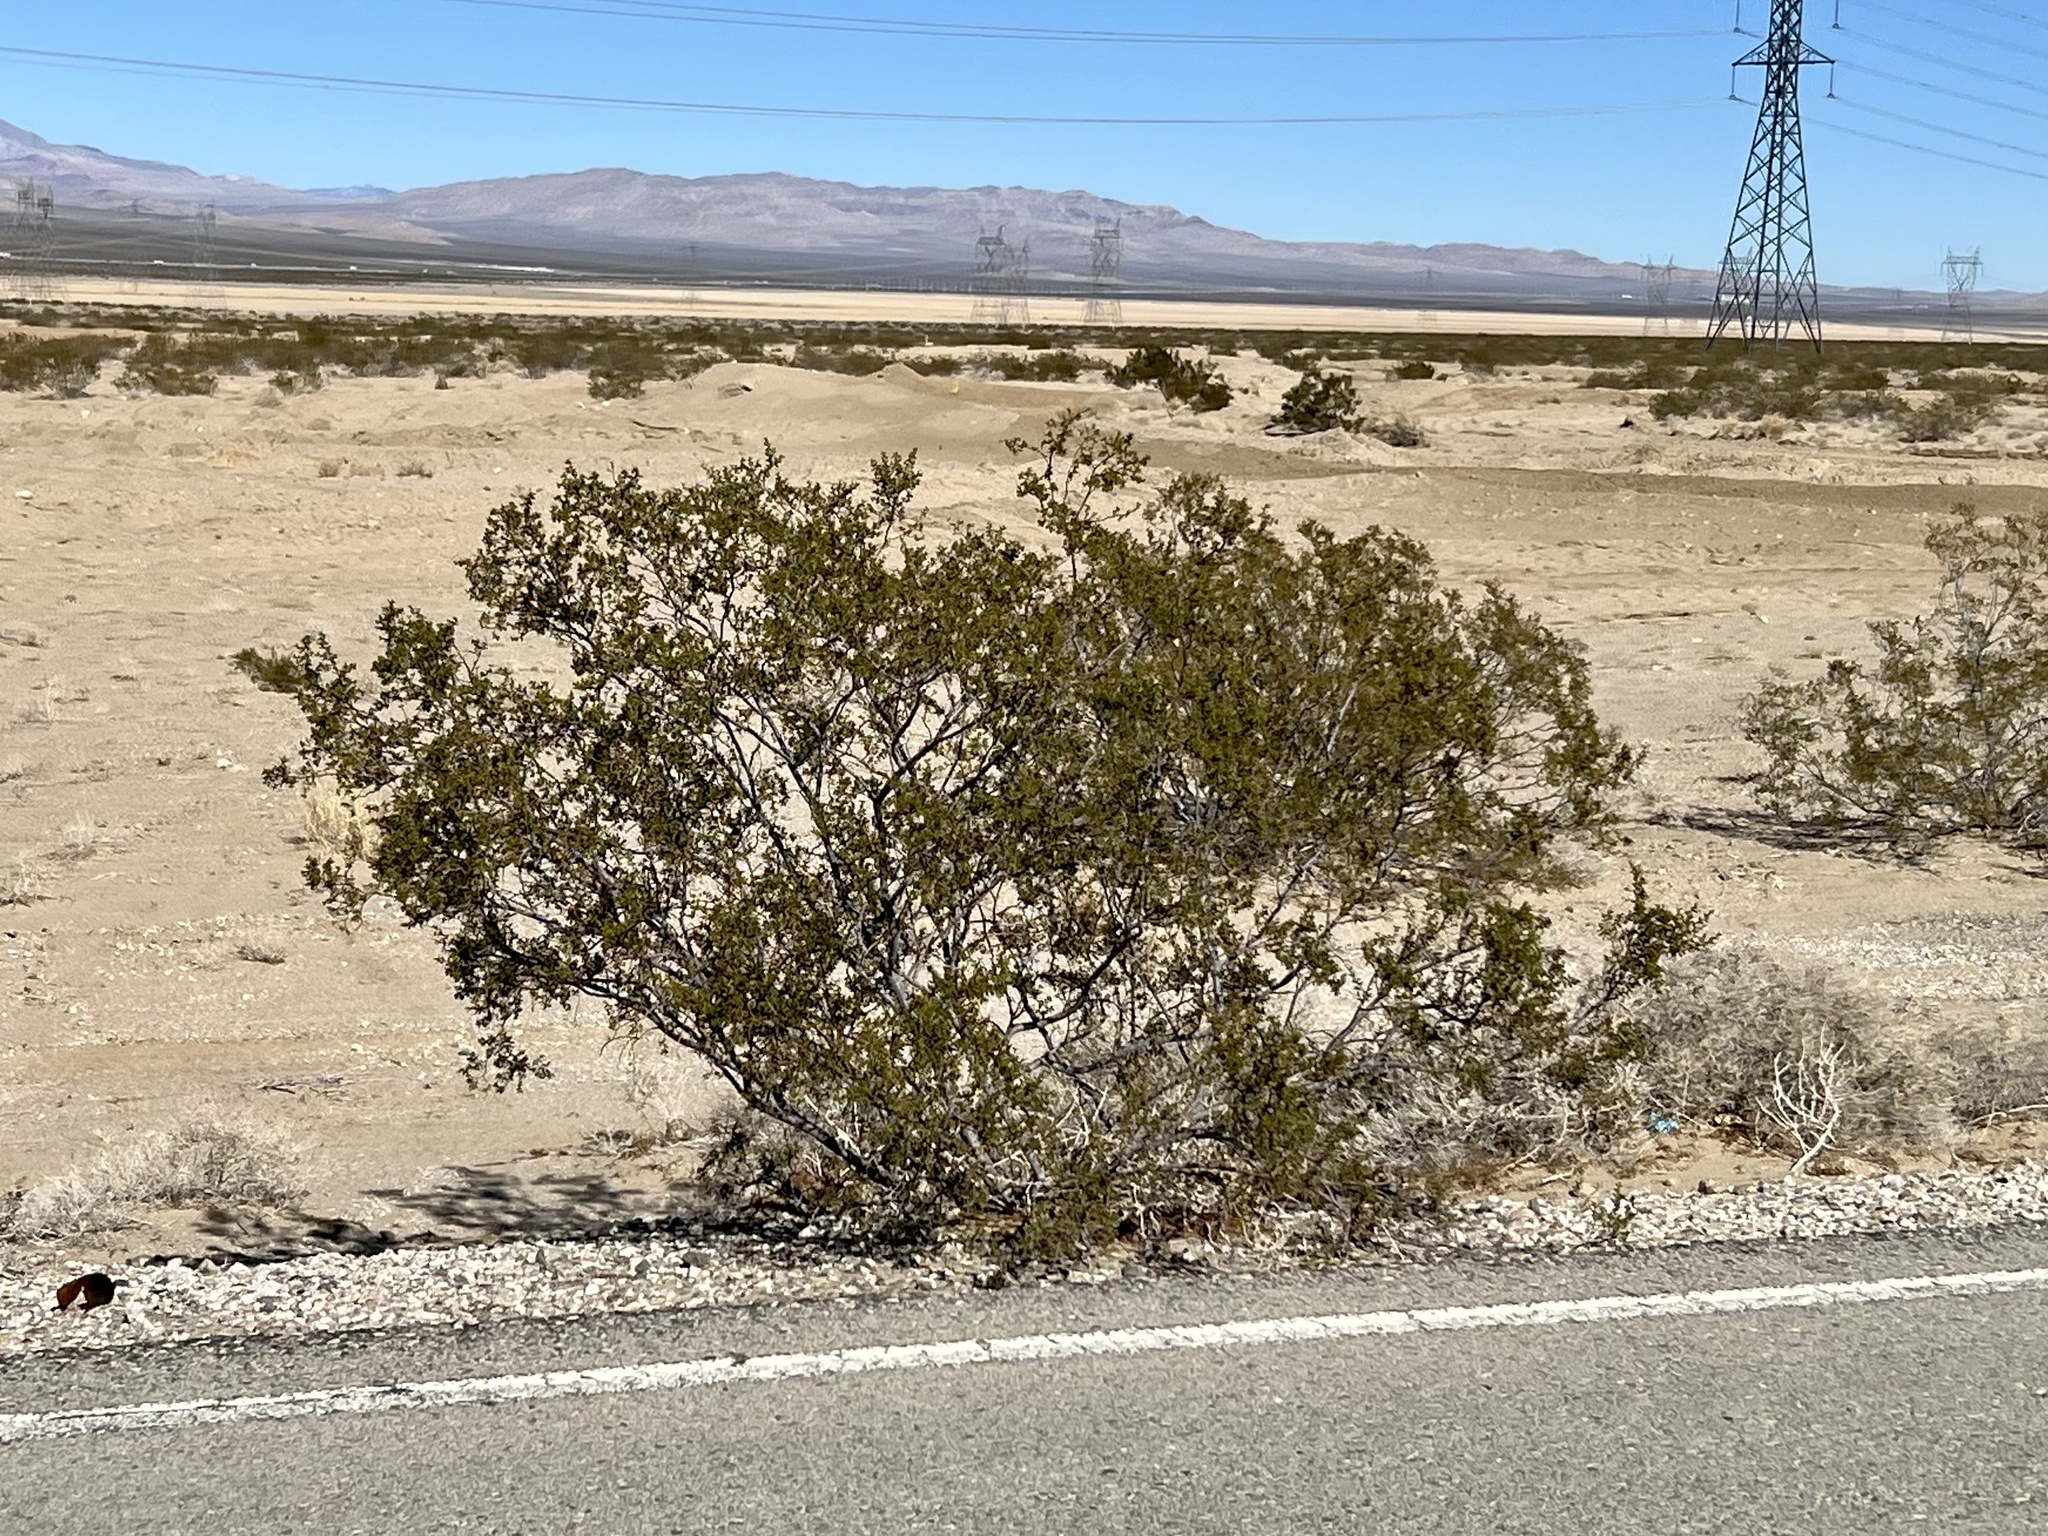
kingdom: Plantae
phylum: Tracheophyta
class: Magnoliopsida
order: Zygophyllales
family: Zygophyllaceae
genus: Larrea
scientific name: Larrea tridentata
